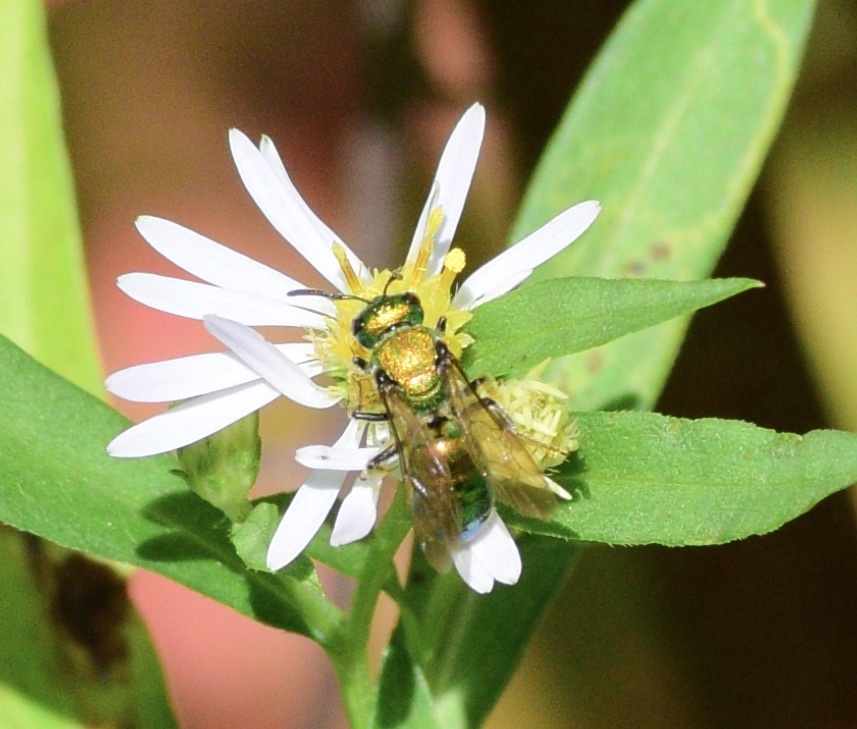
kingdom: Animalia
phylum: Arthropoda
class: Insecta
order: Hymenoptera
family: Halictidae
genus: Augochlora
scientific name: Augochlora pura
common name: Pure green sweat bee
